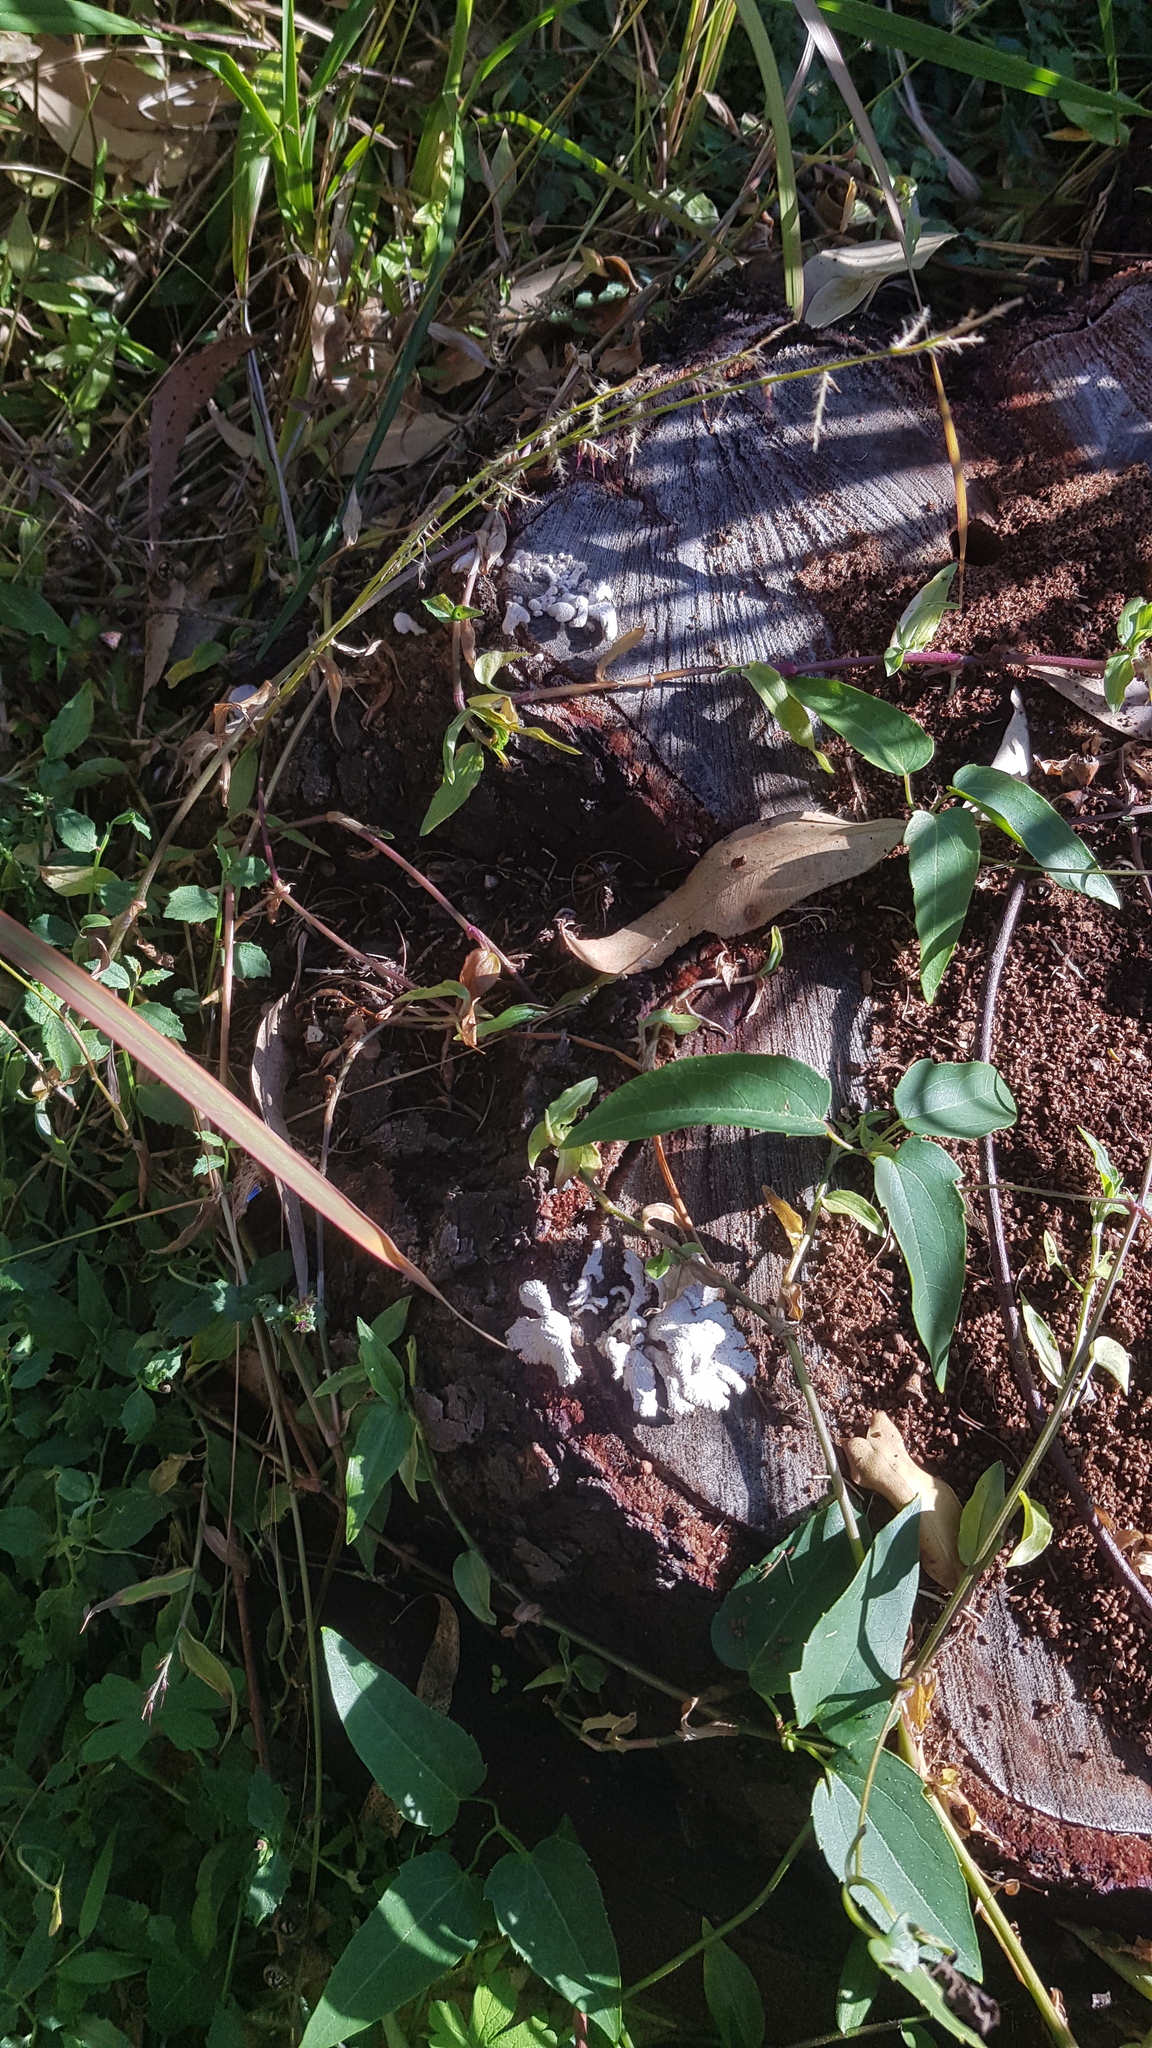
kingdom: Fungi
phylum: Basidiomycota
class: Agaricomycetes
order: Agaricales
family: Schizophyllaceae
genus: Schizophyllum
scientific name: Schizophyllum commune
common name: Common porecrust
